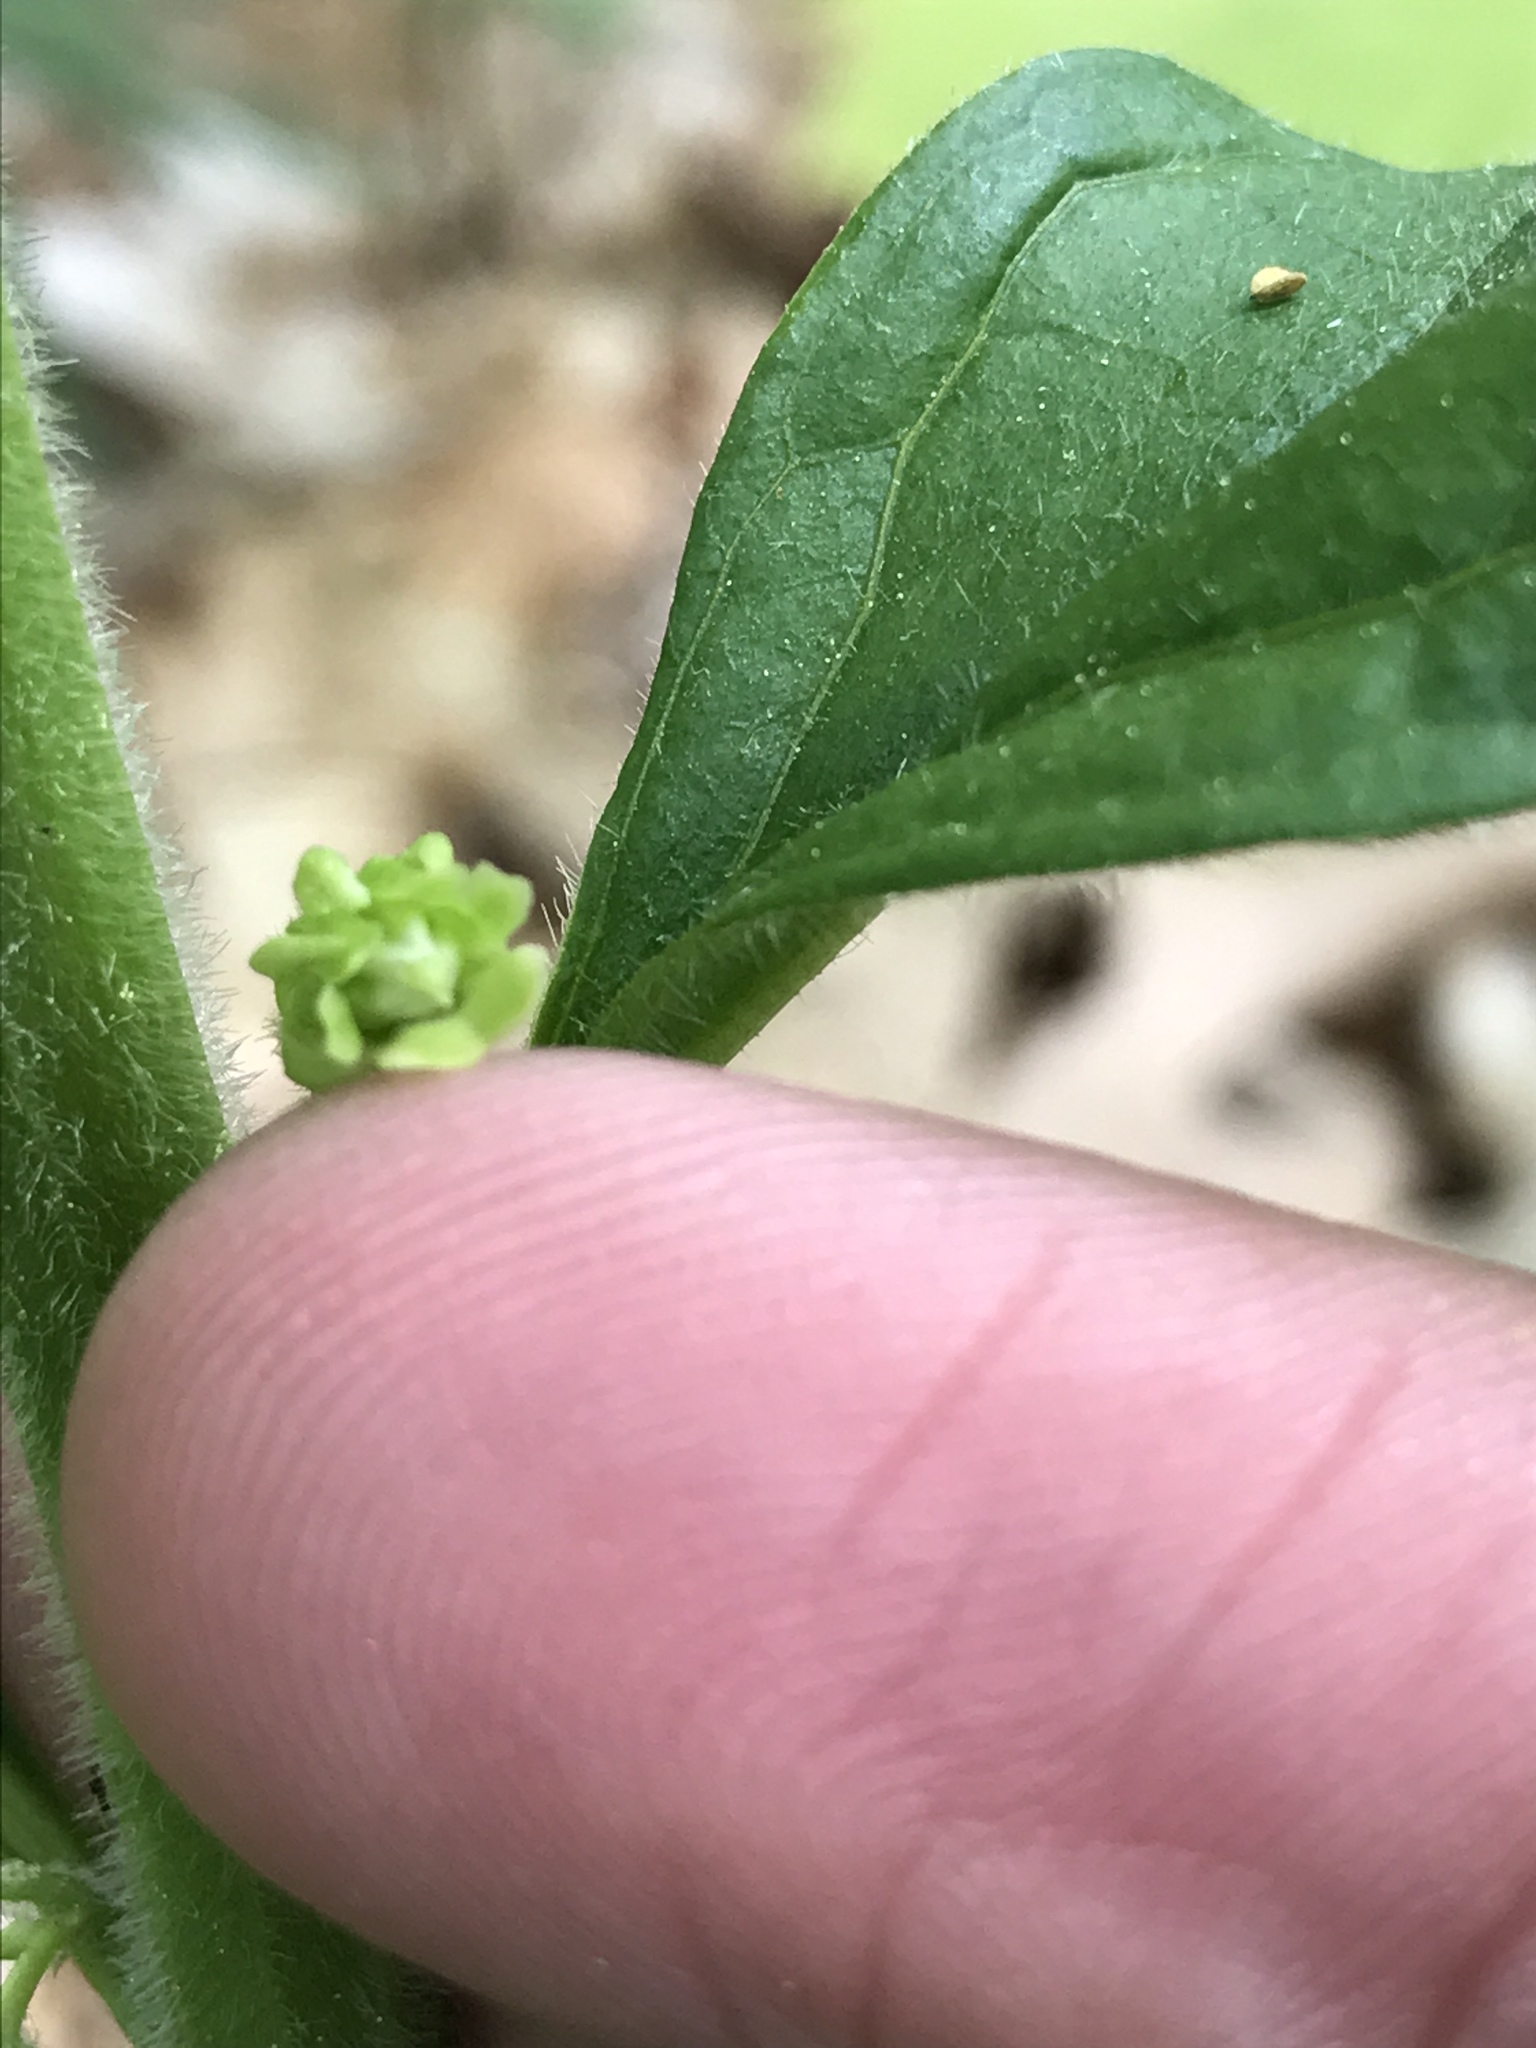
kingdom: Plantae
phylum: Tracheophyta
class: Magnoliopsida
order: Malpighiales
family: Violaceae
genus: Cubelium
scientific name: Cubelium concolor
